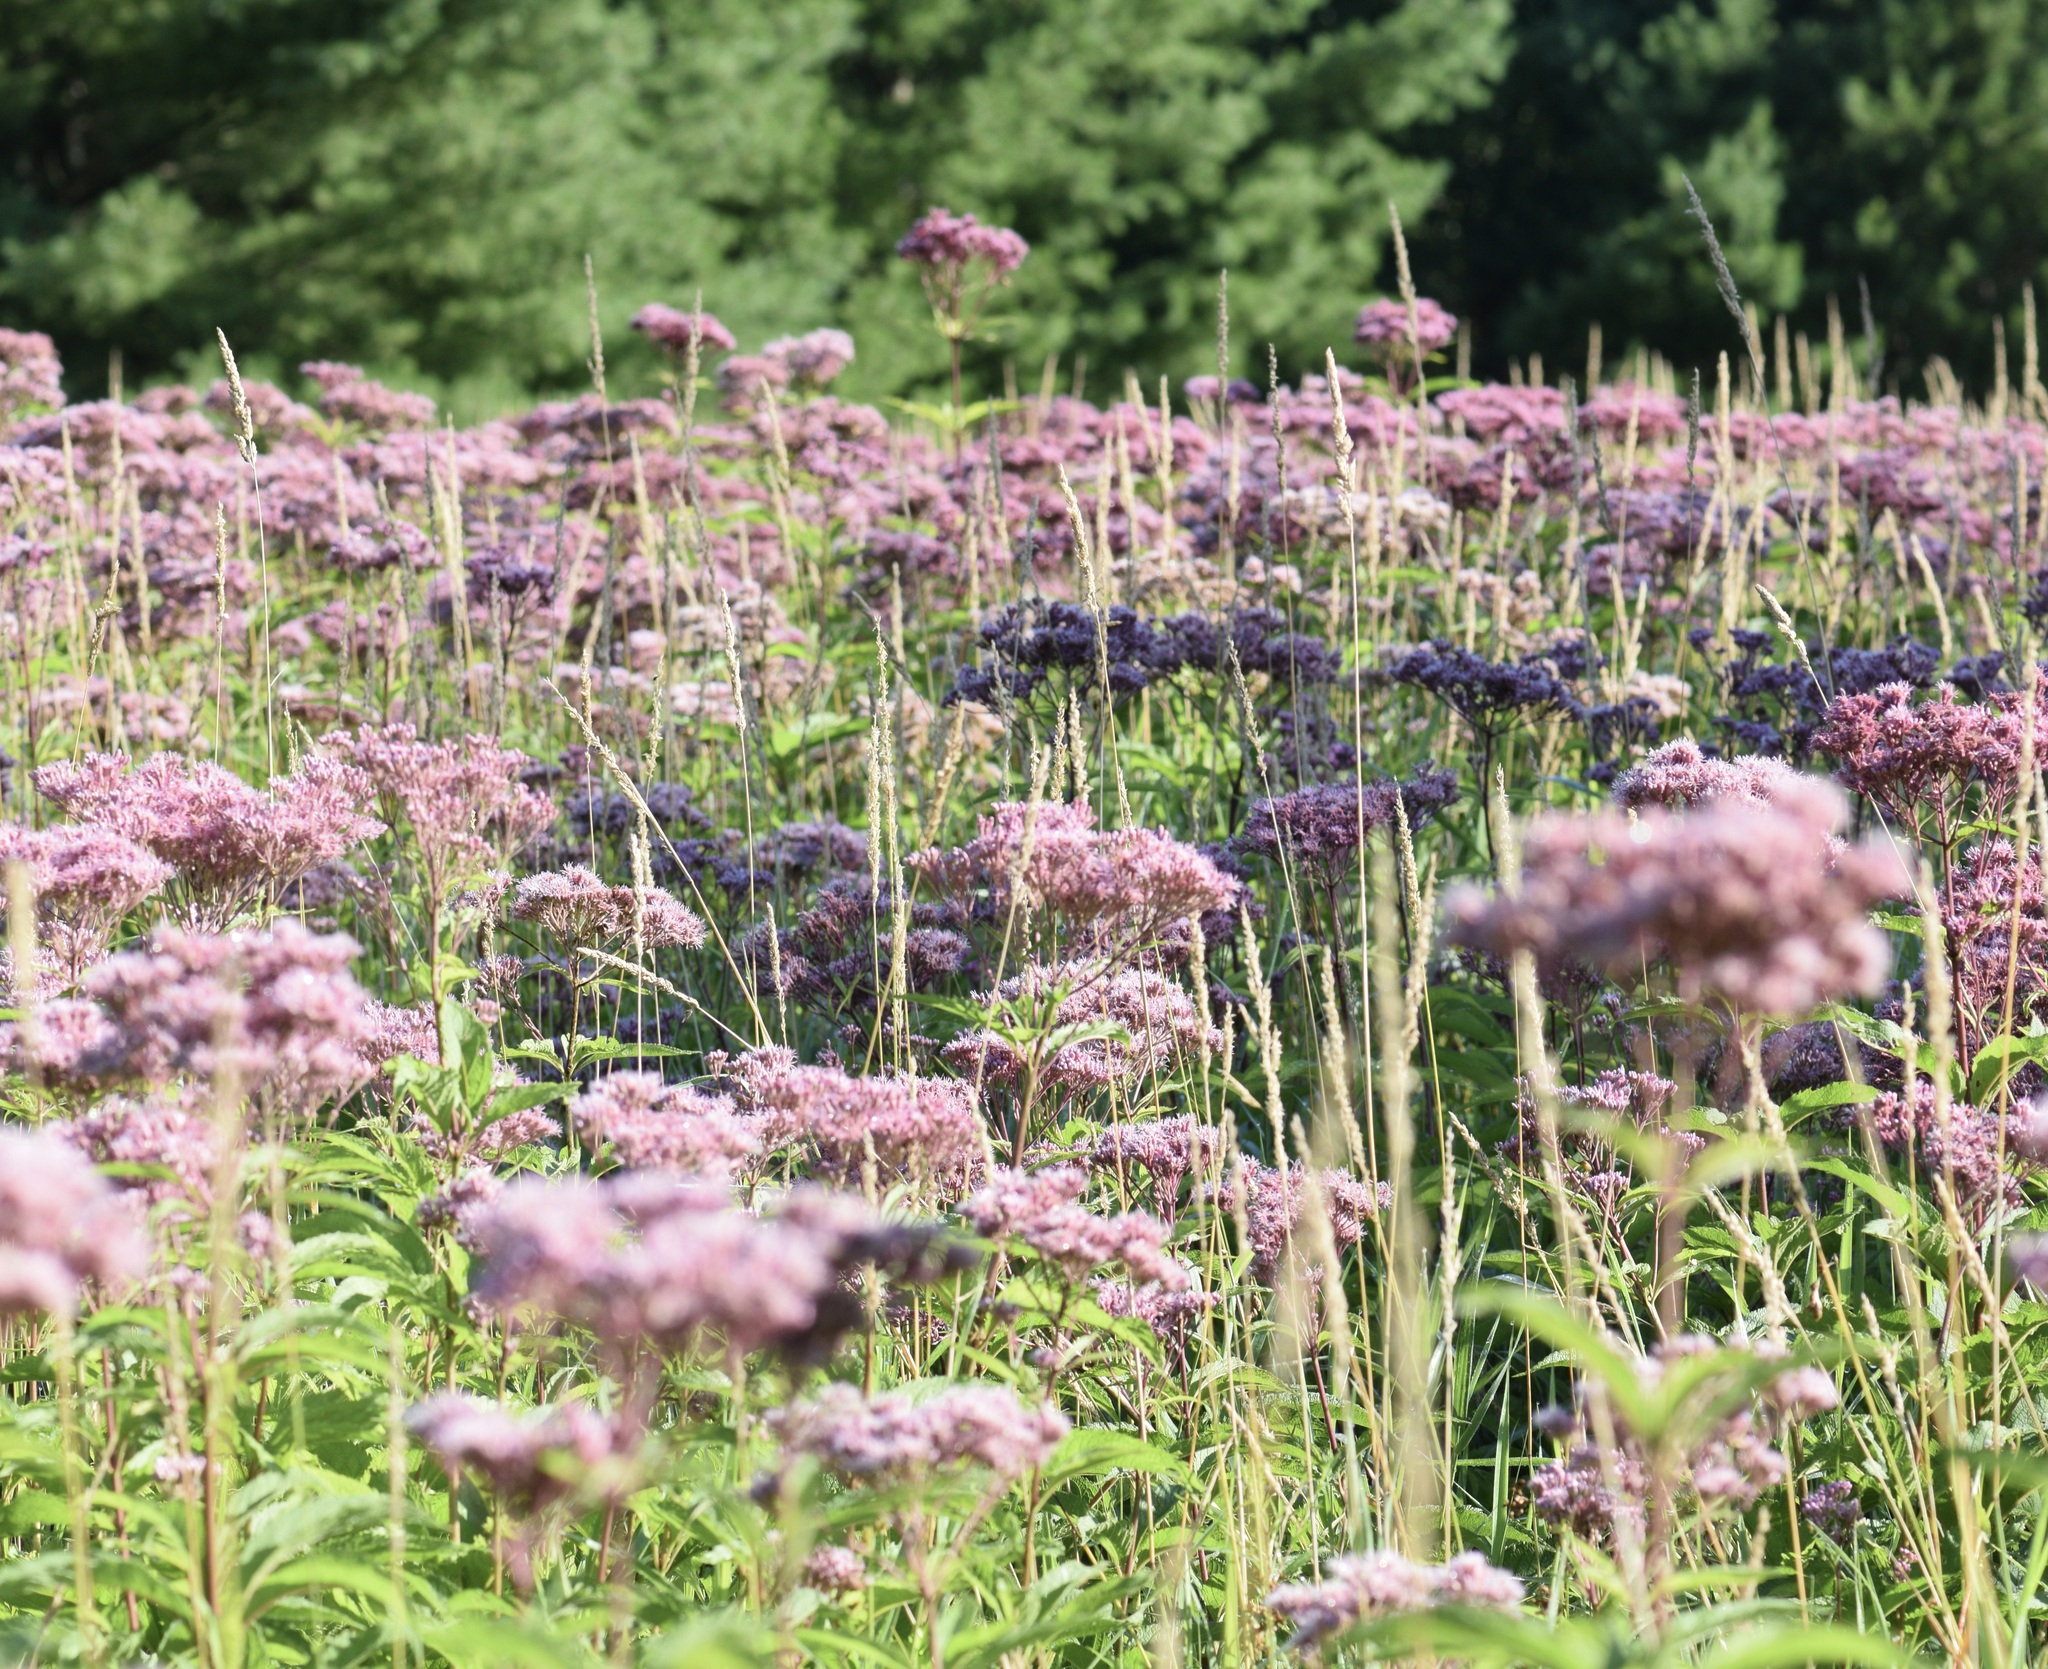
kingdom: Plantae
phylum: Tracheophyta
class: Magnoliopsida
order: Asterales
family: Asteraceae
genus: Eutrochium
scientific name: Eutrochium maculatum
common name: Spotted joe pye weed
